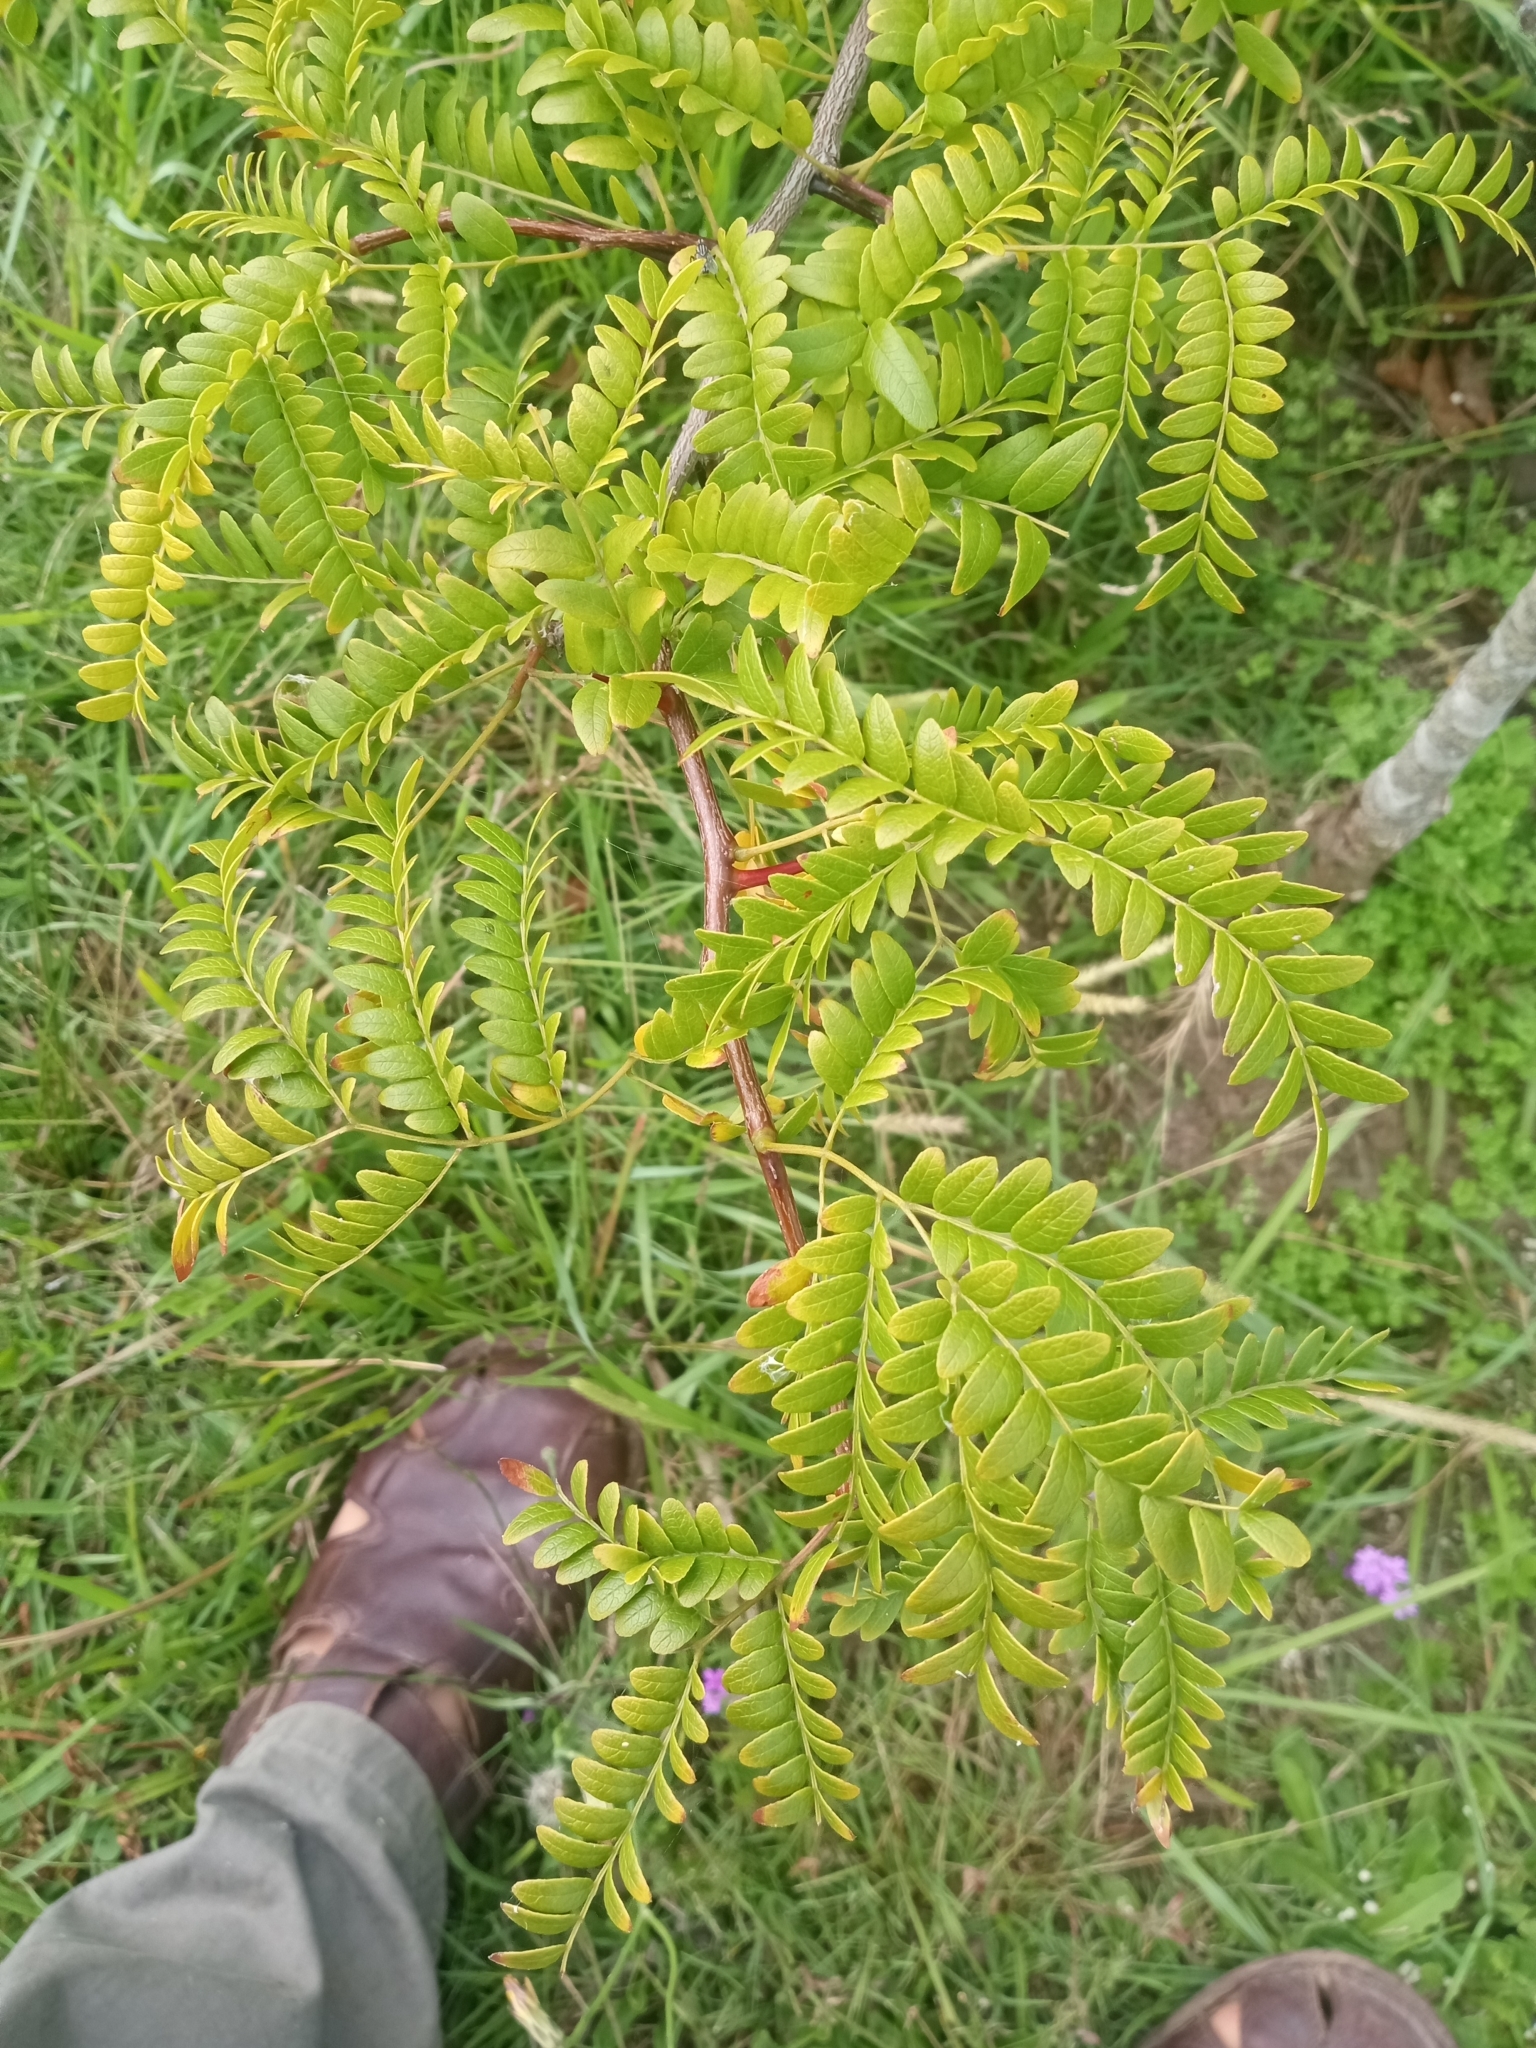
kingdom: Plantae
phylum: Tracheophyta
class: Magnoliopsida
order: Fabales
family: Fabaceae
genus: Gleditsia
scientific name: Gleditsia triacanthos
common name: Common honeylocust
